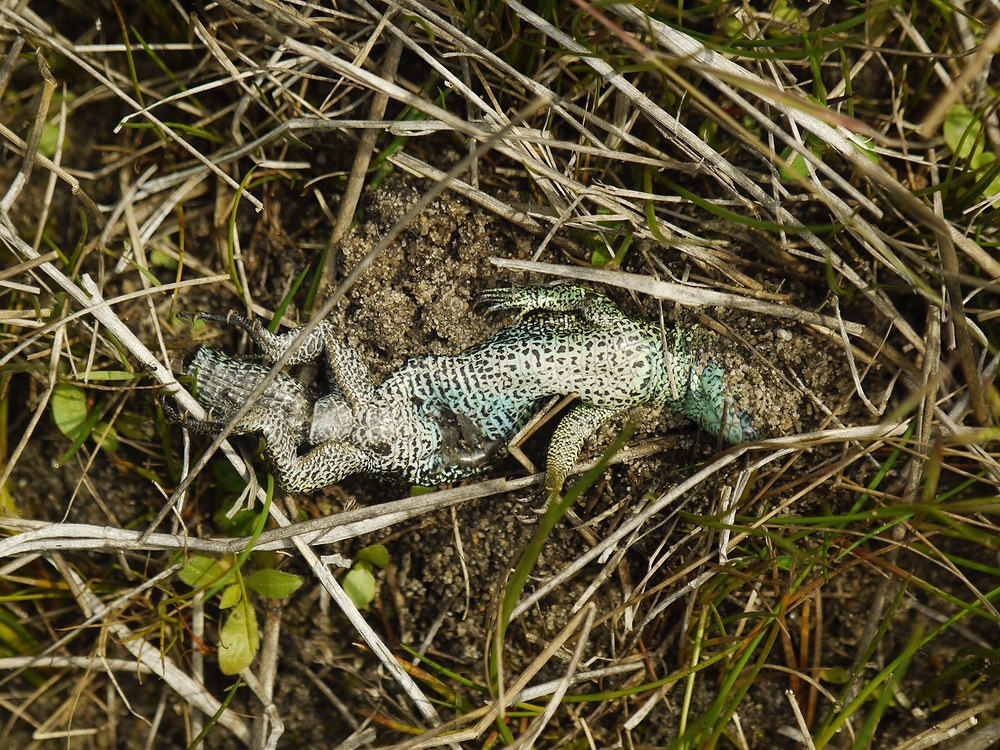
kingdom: Animalia
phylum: Chordata
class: Squamata
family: Lacertidae
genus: Lacerta
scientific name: Lacerta agilis
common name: Sand lizard
